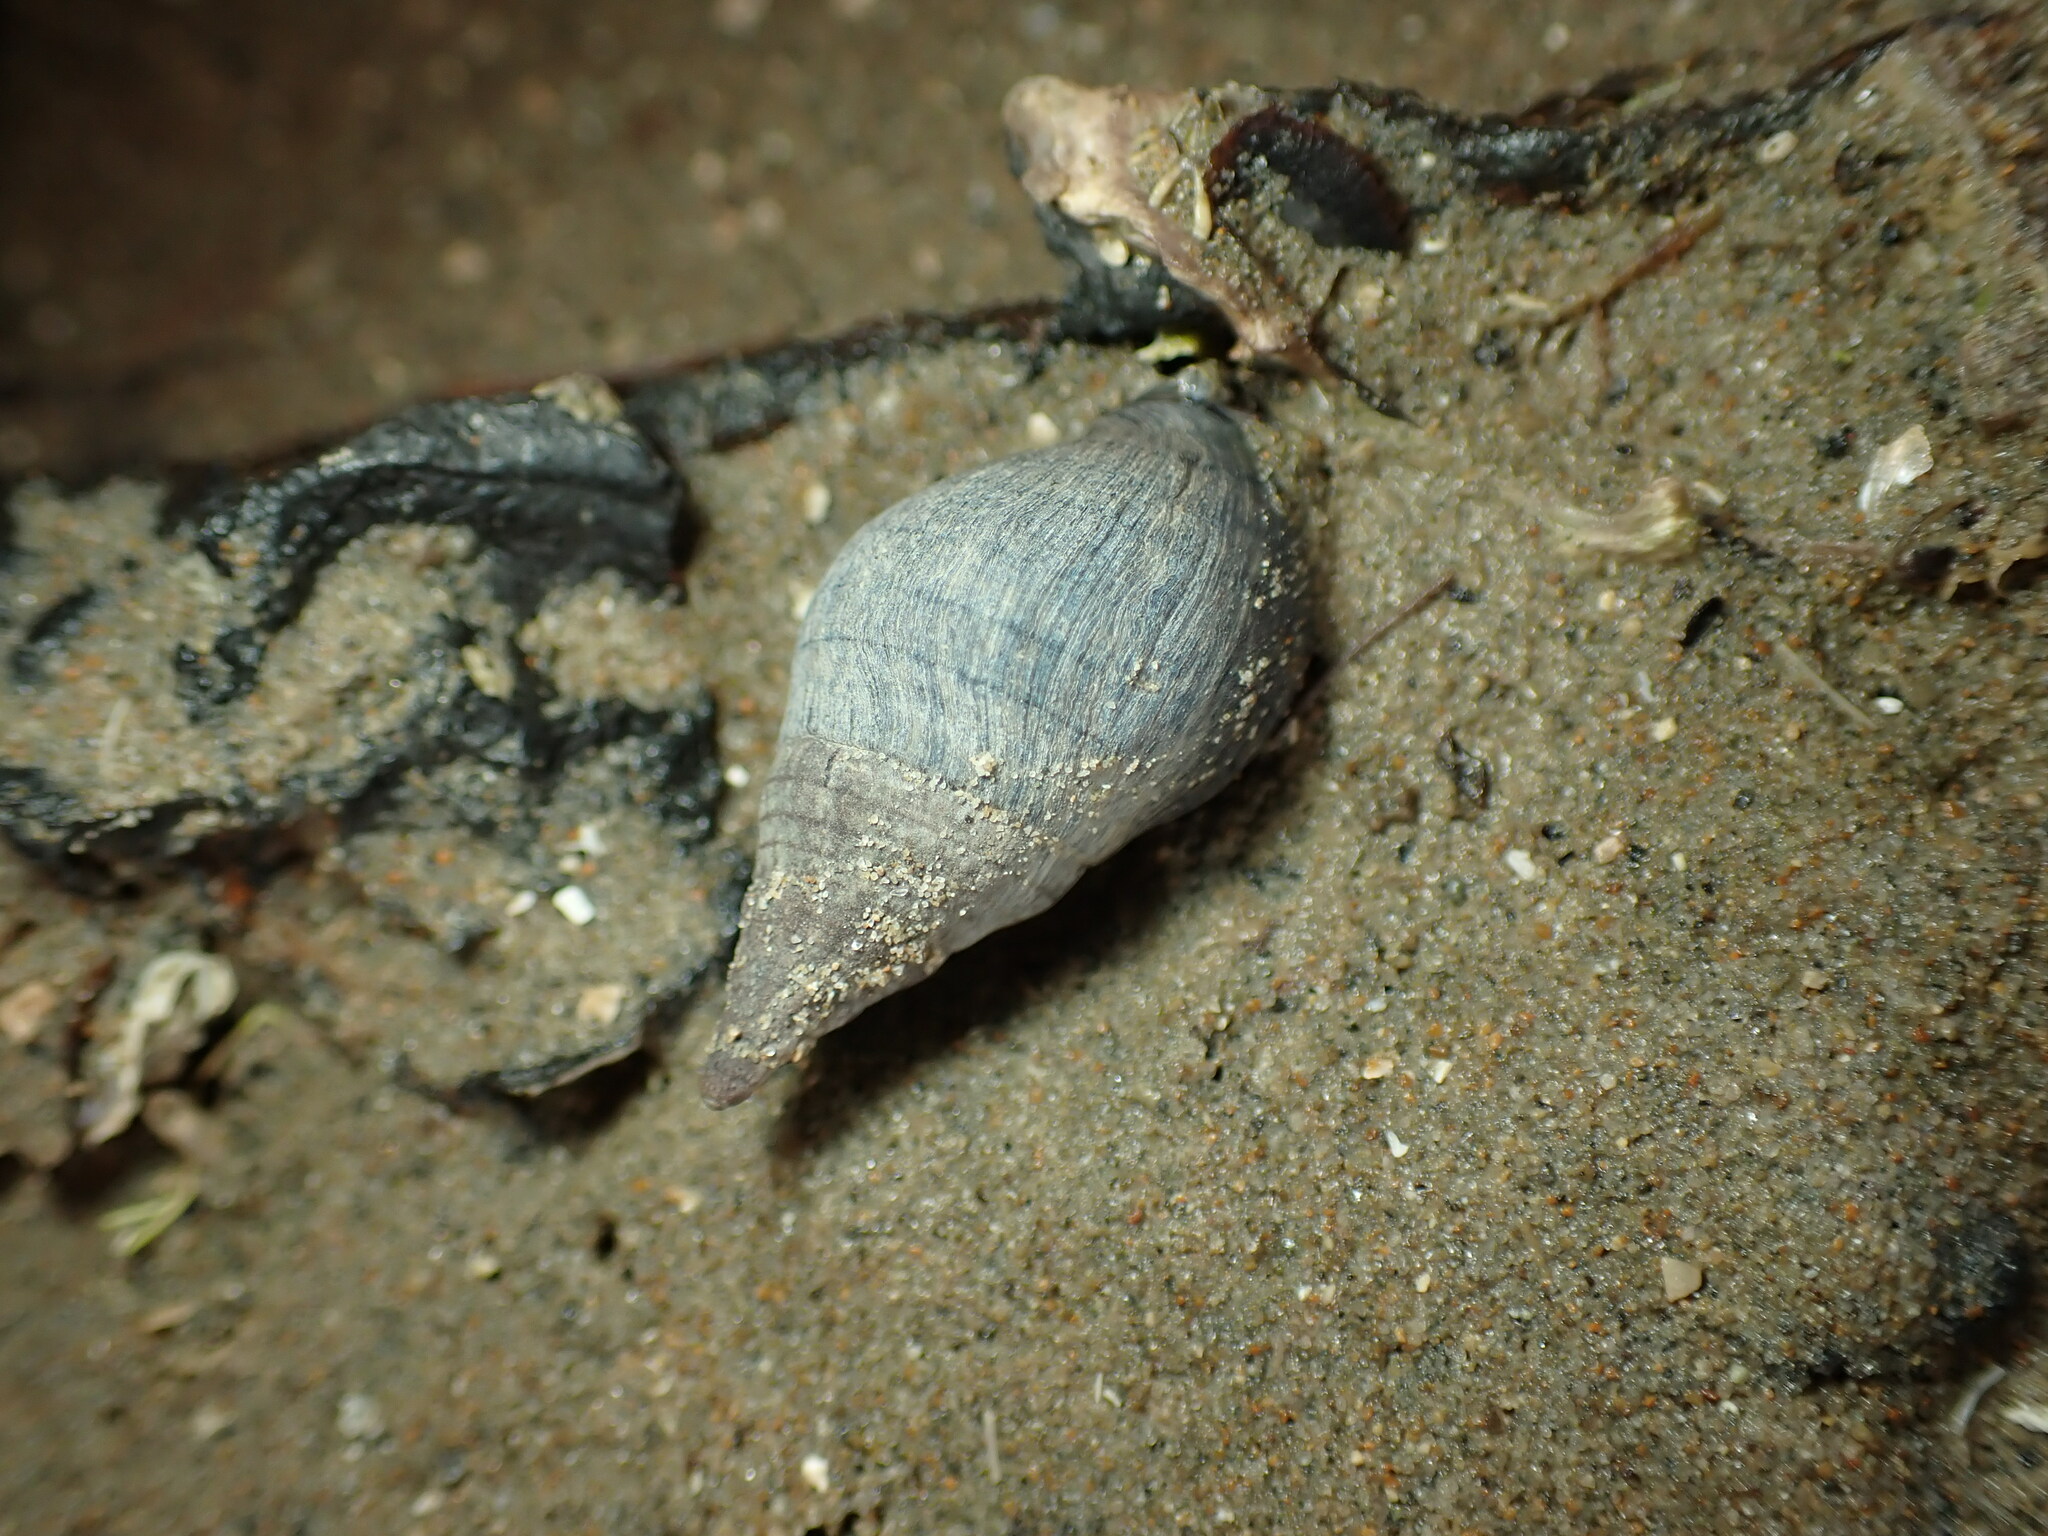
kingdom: Animalia
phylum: Mollusca
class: Gastropoda
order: Neogastropoda
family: Cominellidae
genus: Cominella
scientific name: Cominella virgata
